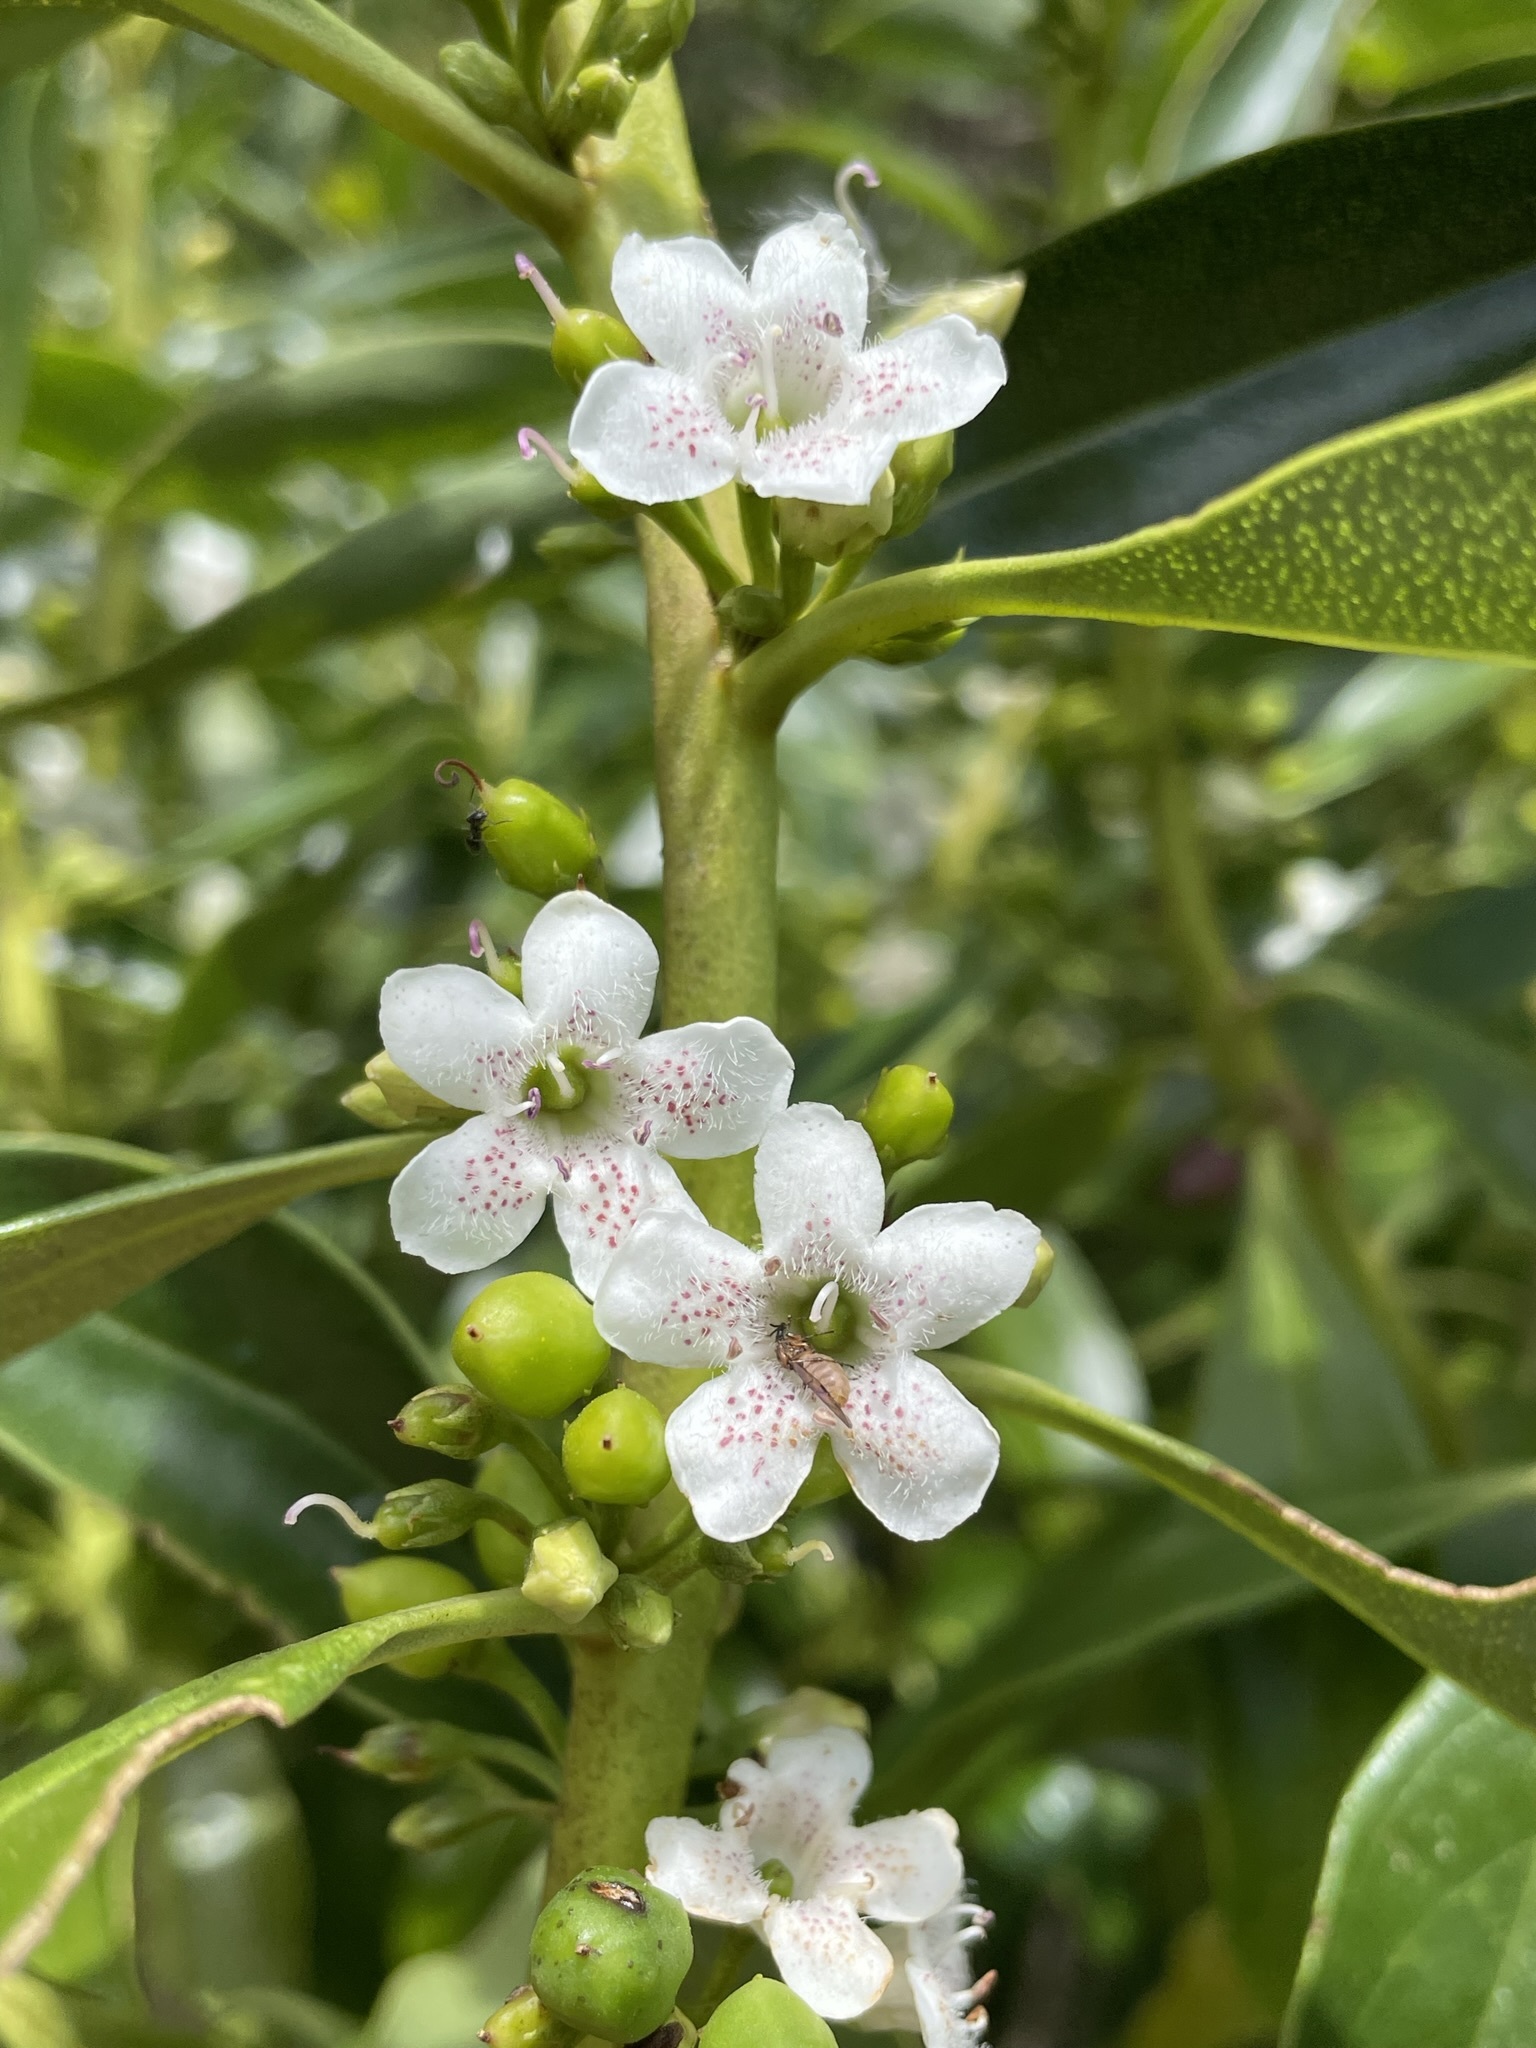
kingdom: Plantae
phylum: Tracheophyta
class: Magnoliopsida
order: Lamiales
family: Scrophulariaceae
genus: Myoporum
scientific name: Myoporum laetum
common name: Ngaio tree
